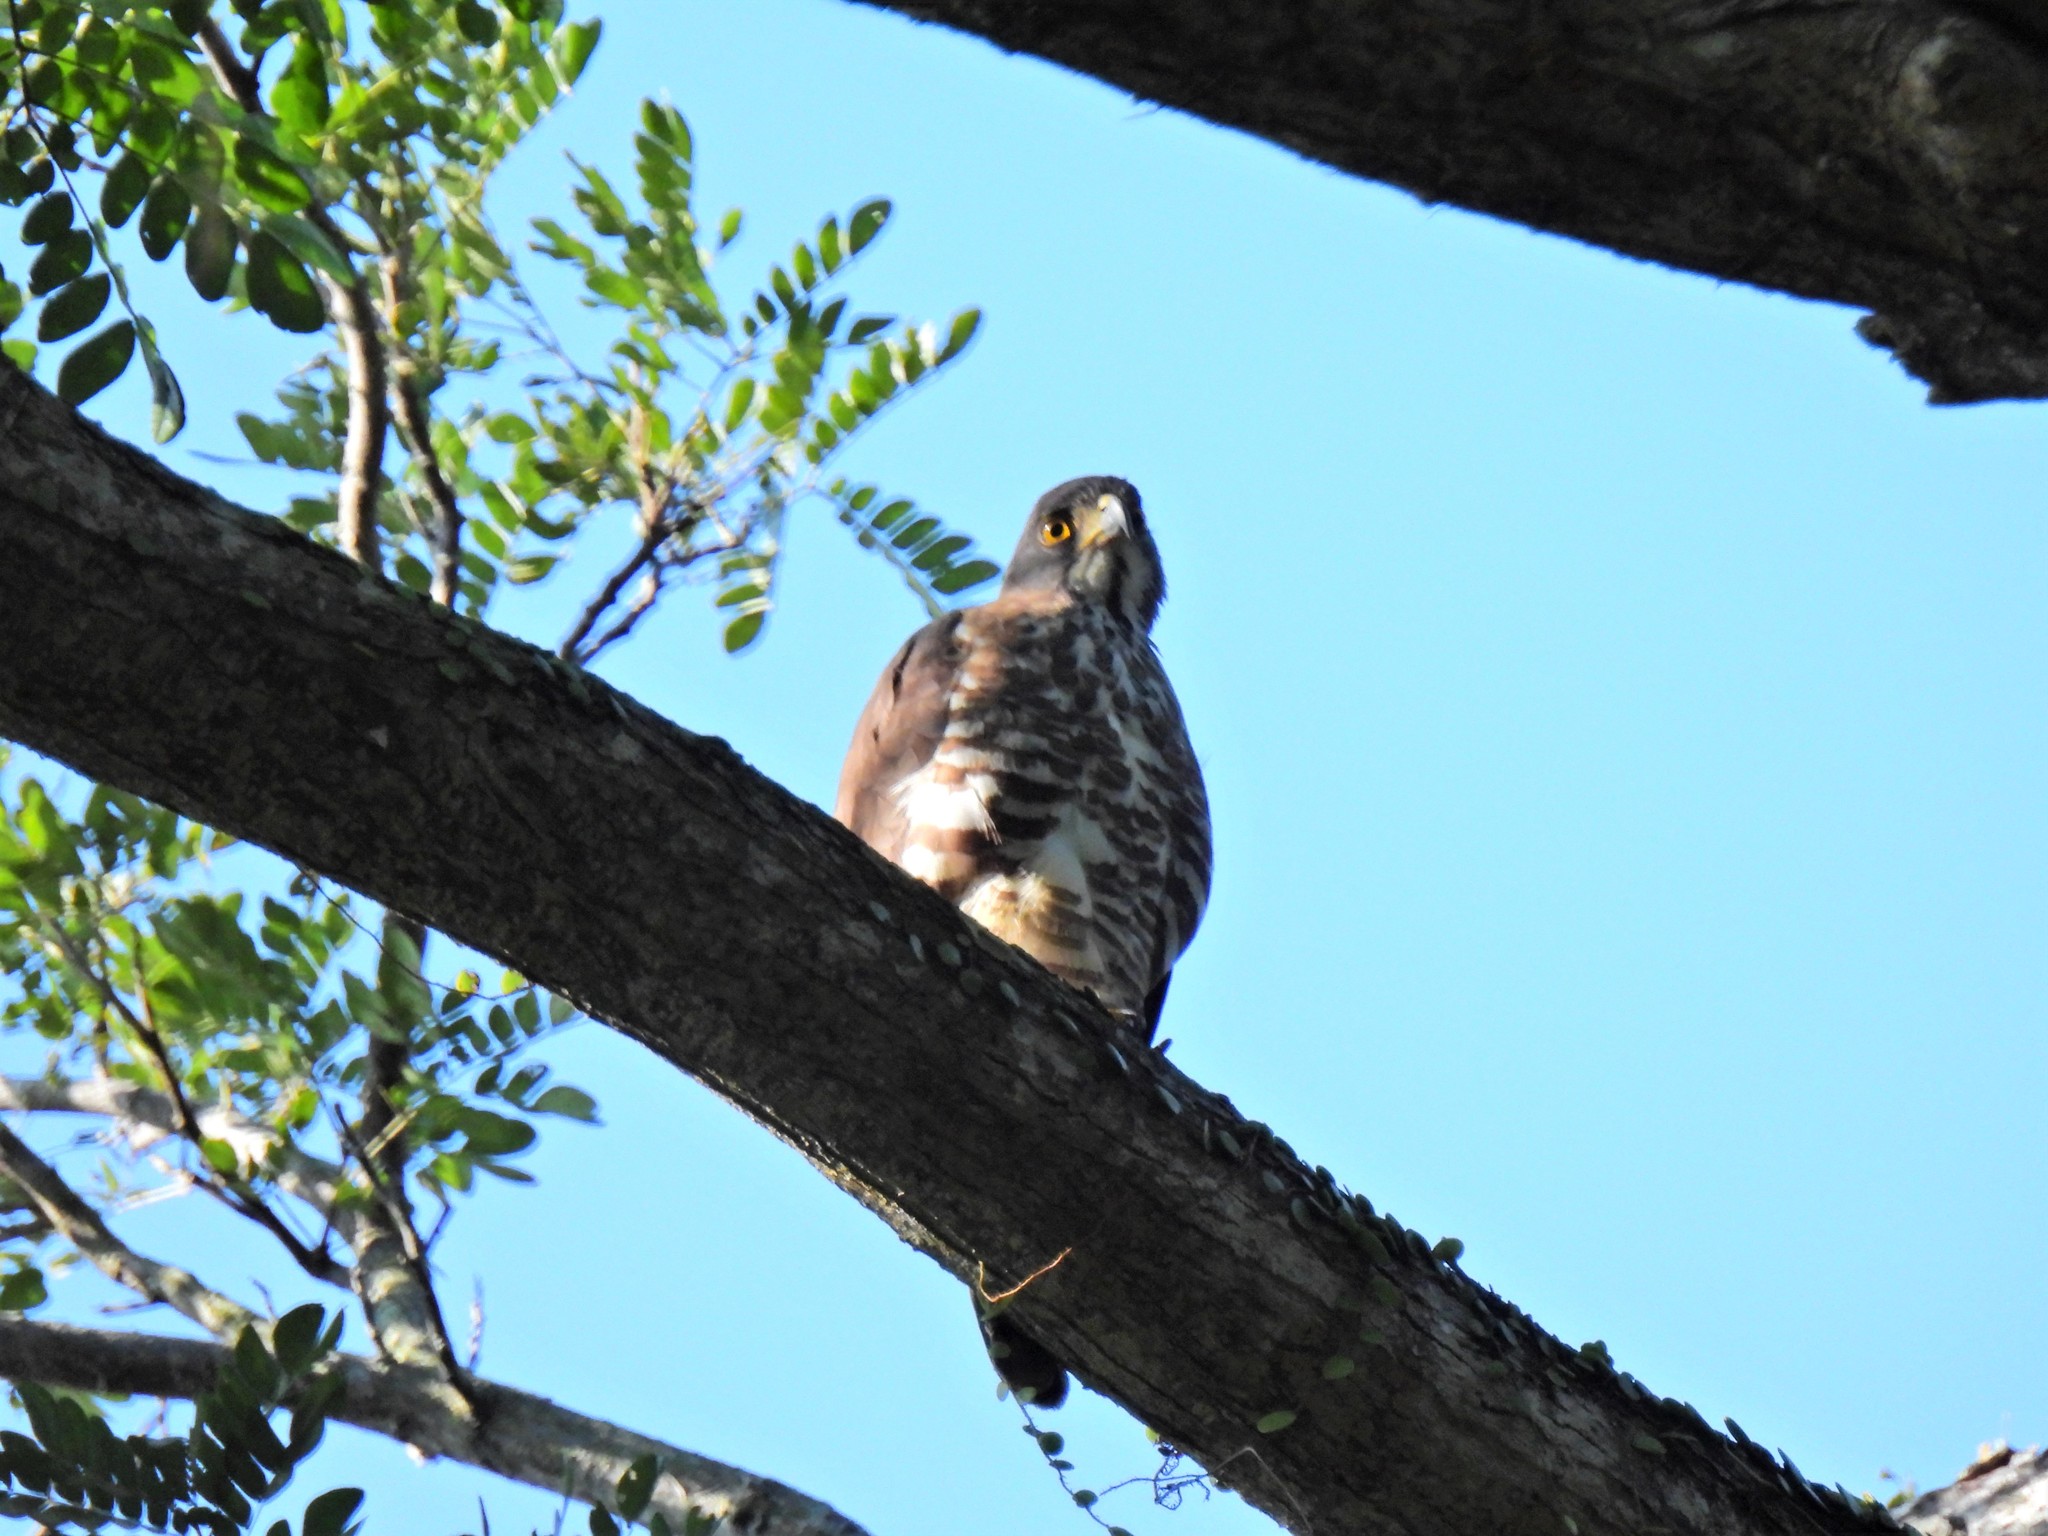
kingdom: Animalia
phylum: Chordata
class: Aves
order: Accipitriformes
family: Accipitridae
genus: Accipiter
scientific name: Accipiter trivirgatus
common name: Crested goshawk
